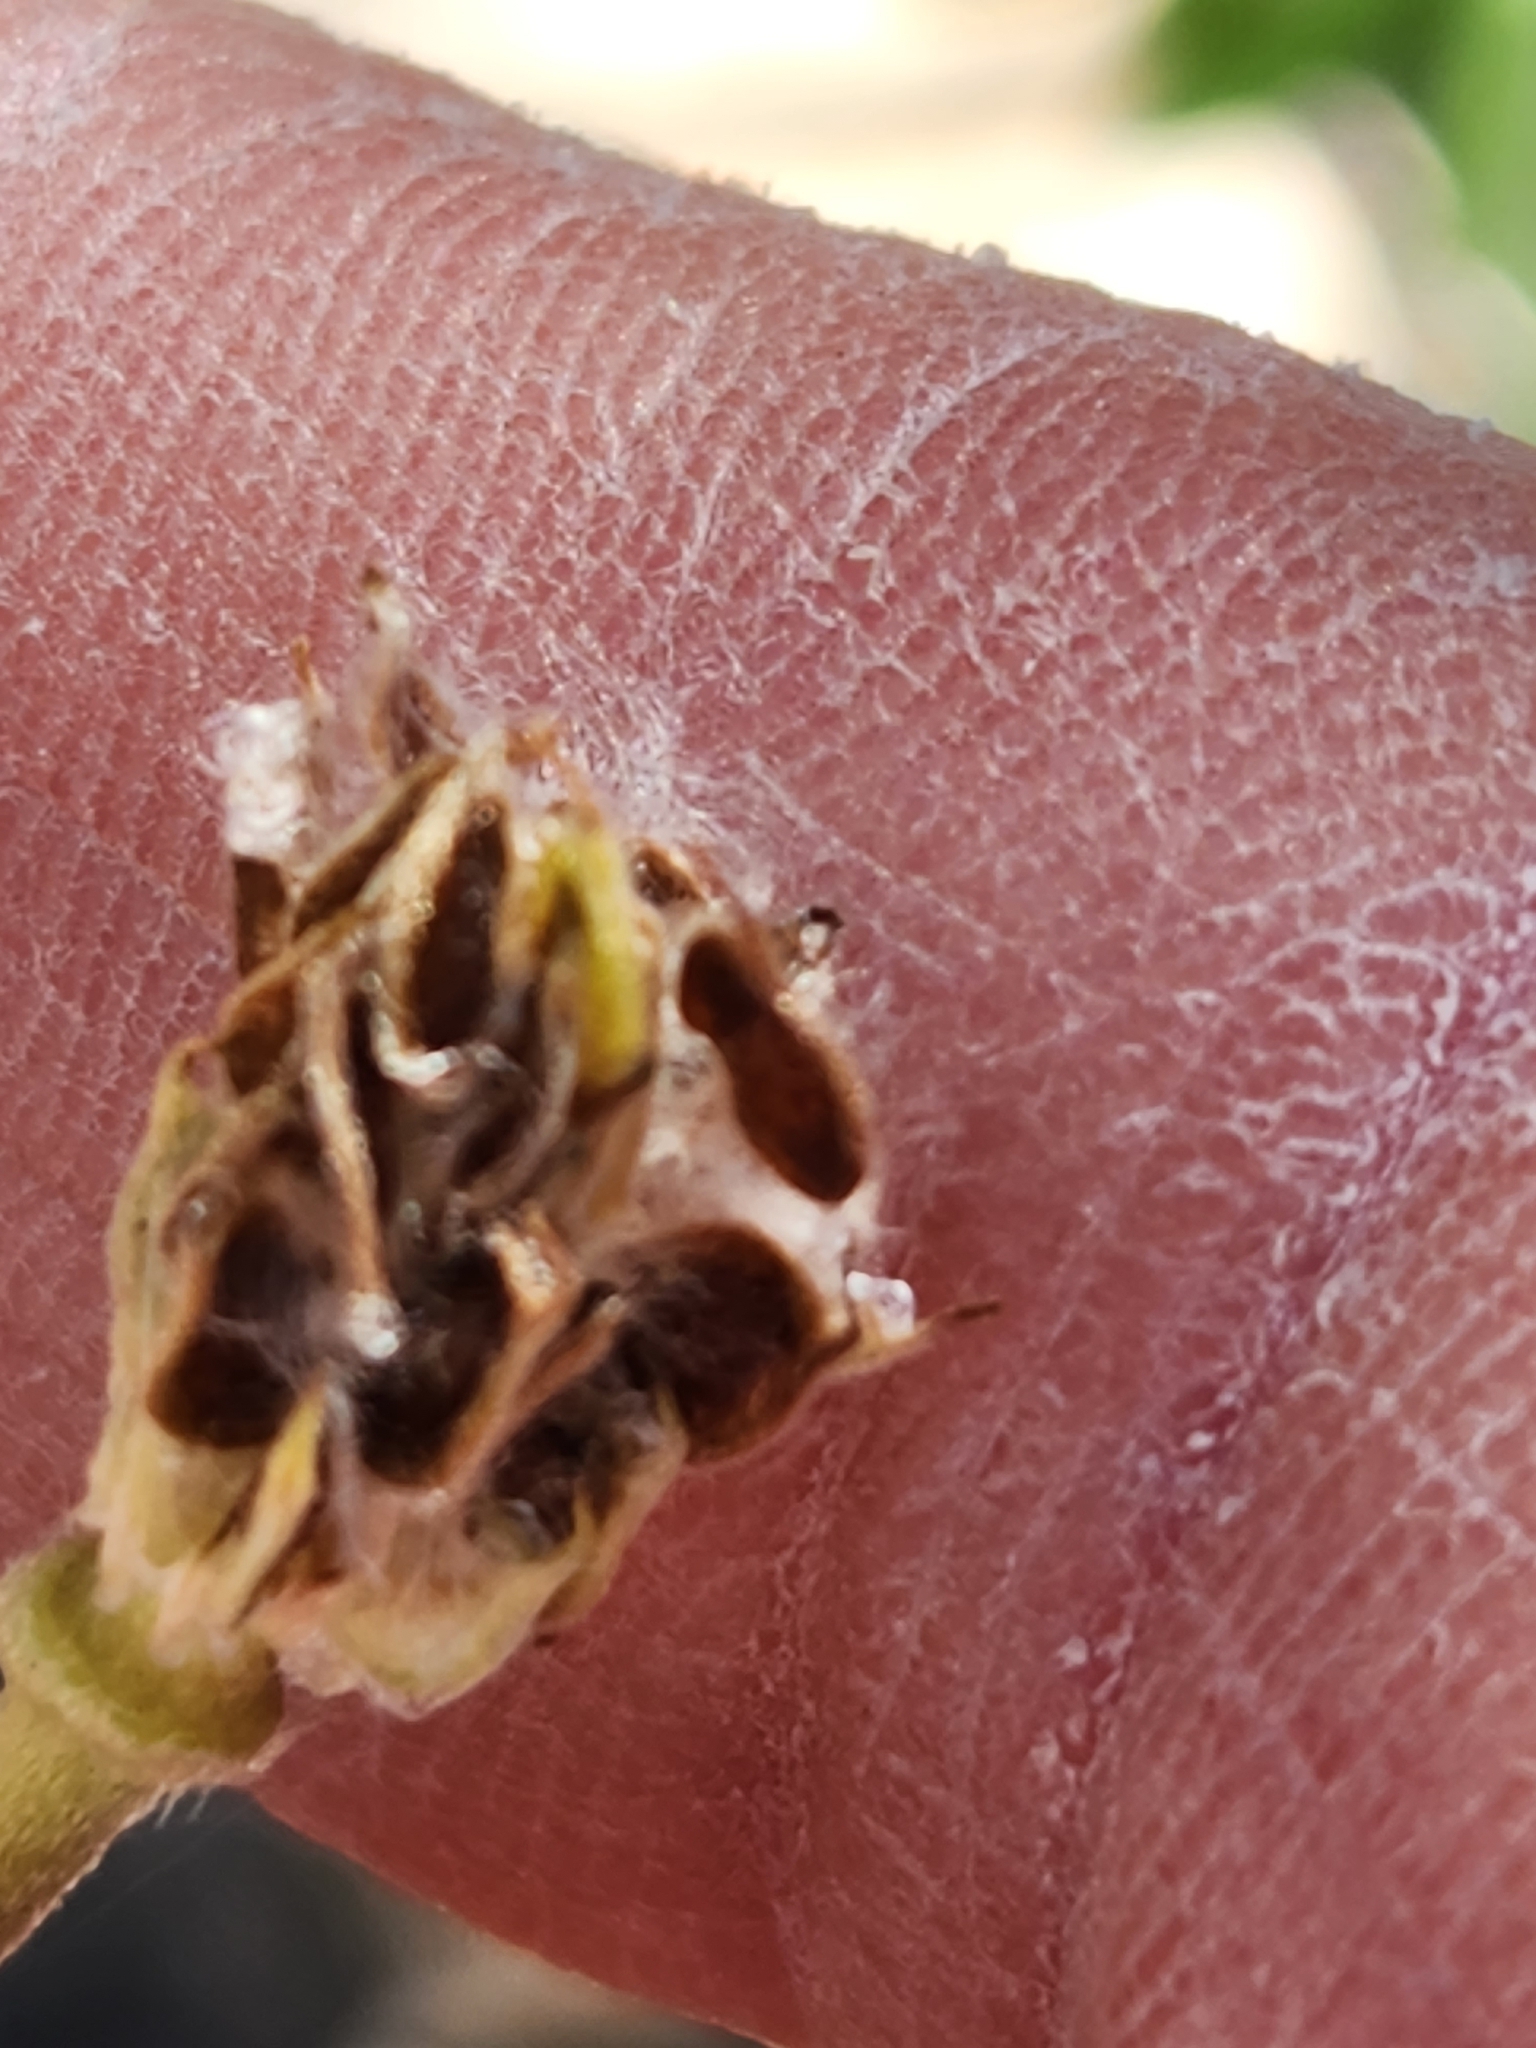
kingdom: Plantae
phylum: Tracheophyta
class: Magnoliopsida
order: Ranunculales
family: Ranunculaceae
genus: Anemone
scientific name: Anemone edwardsiana
